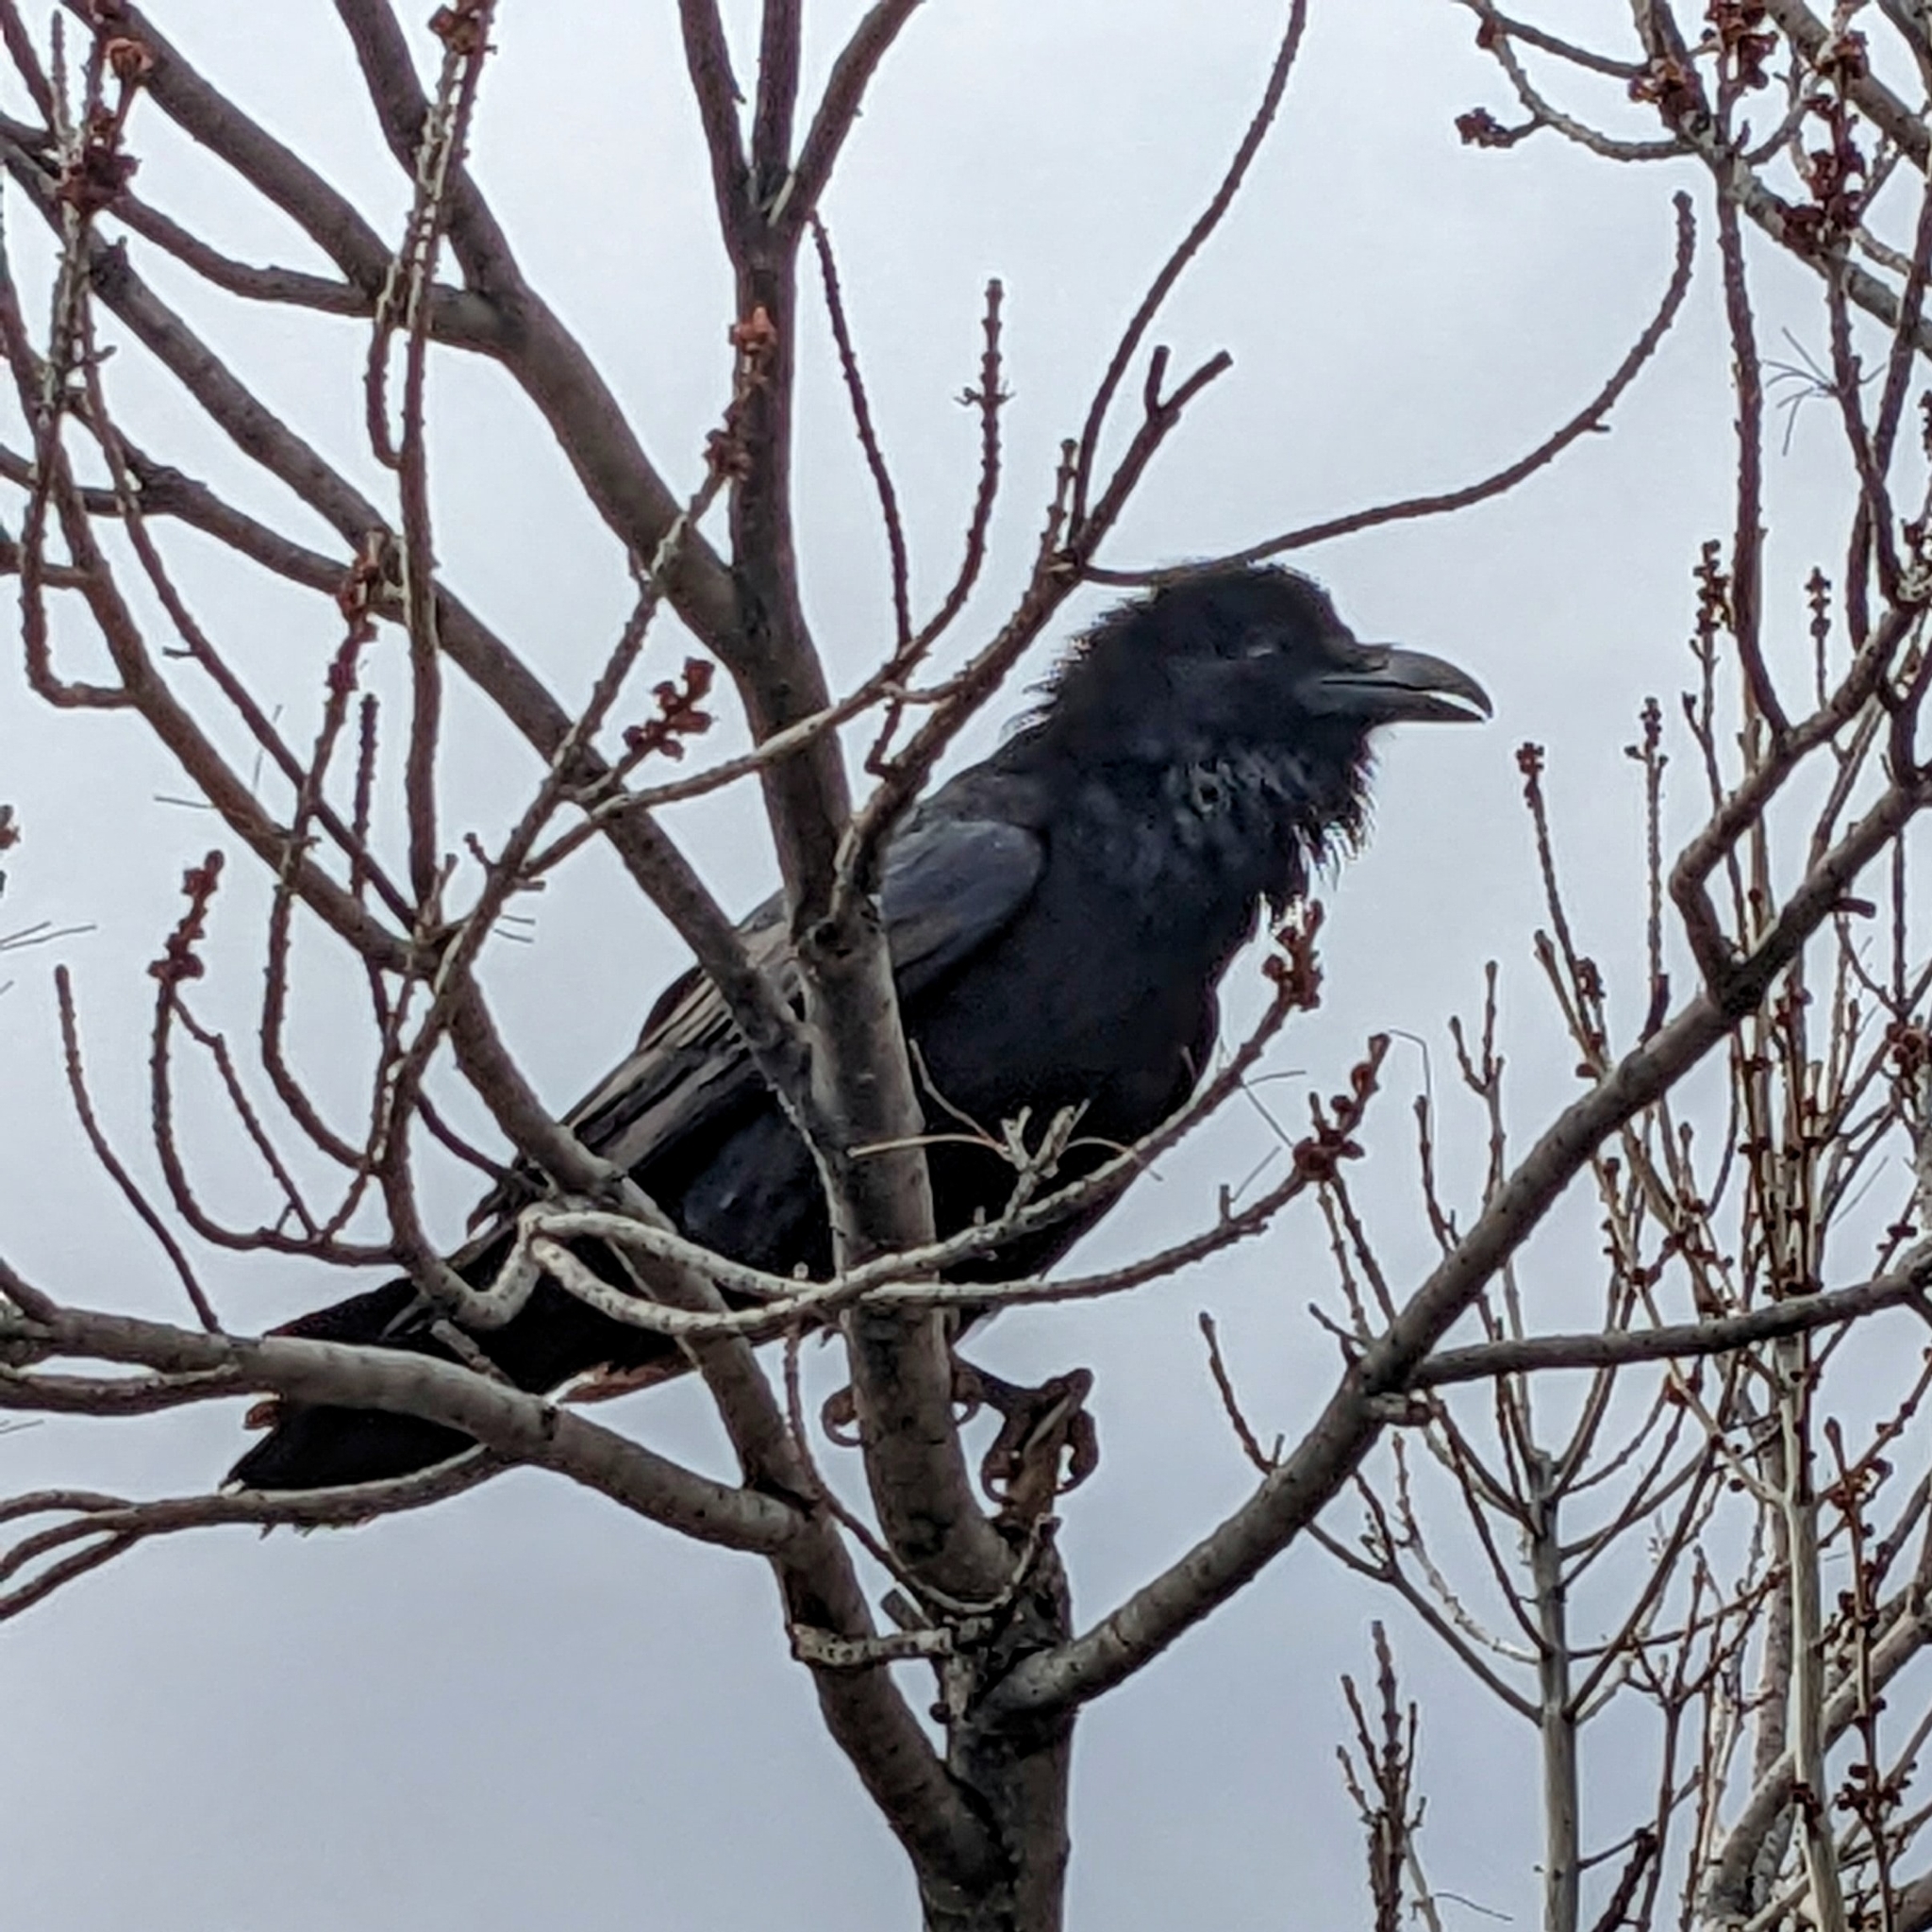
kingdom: Animalia
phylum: Chordata
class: Aves
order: Passeriformes
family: Corvidae
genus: Corvus
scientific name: Corvus corax
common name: Common raven
